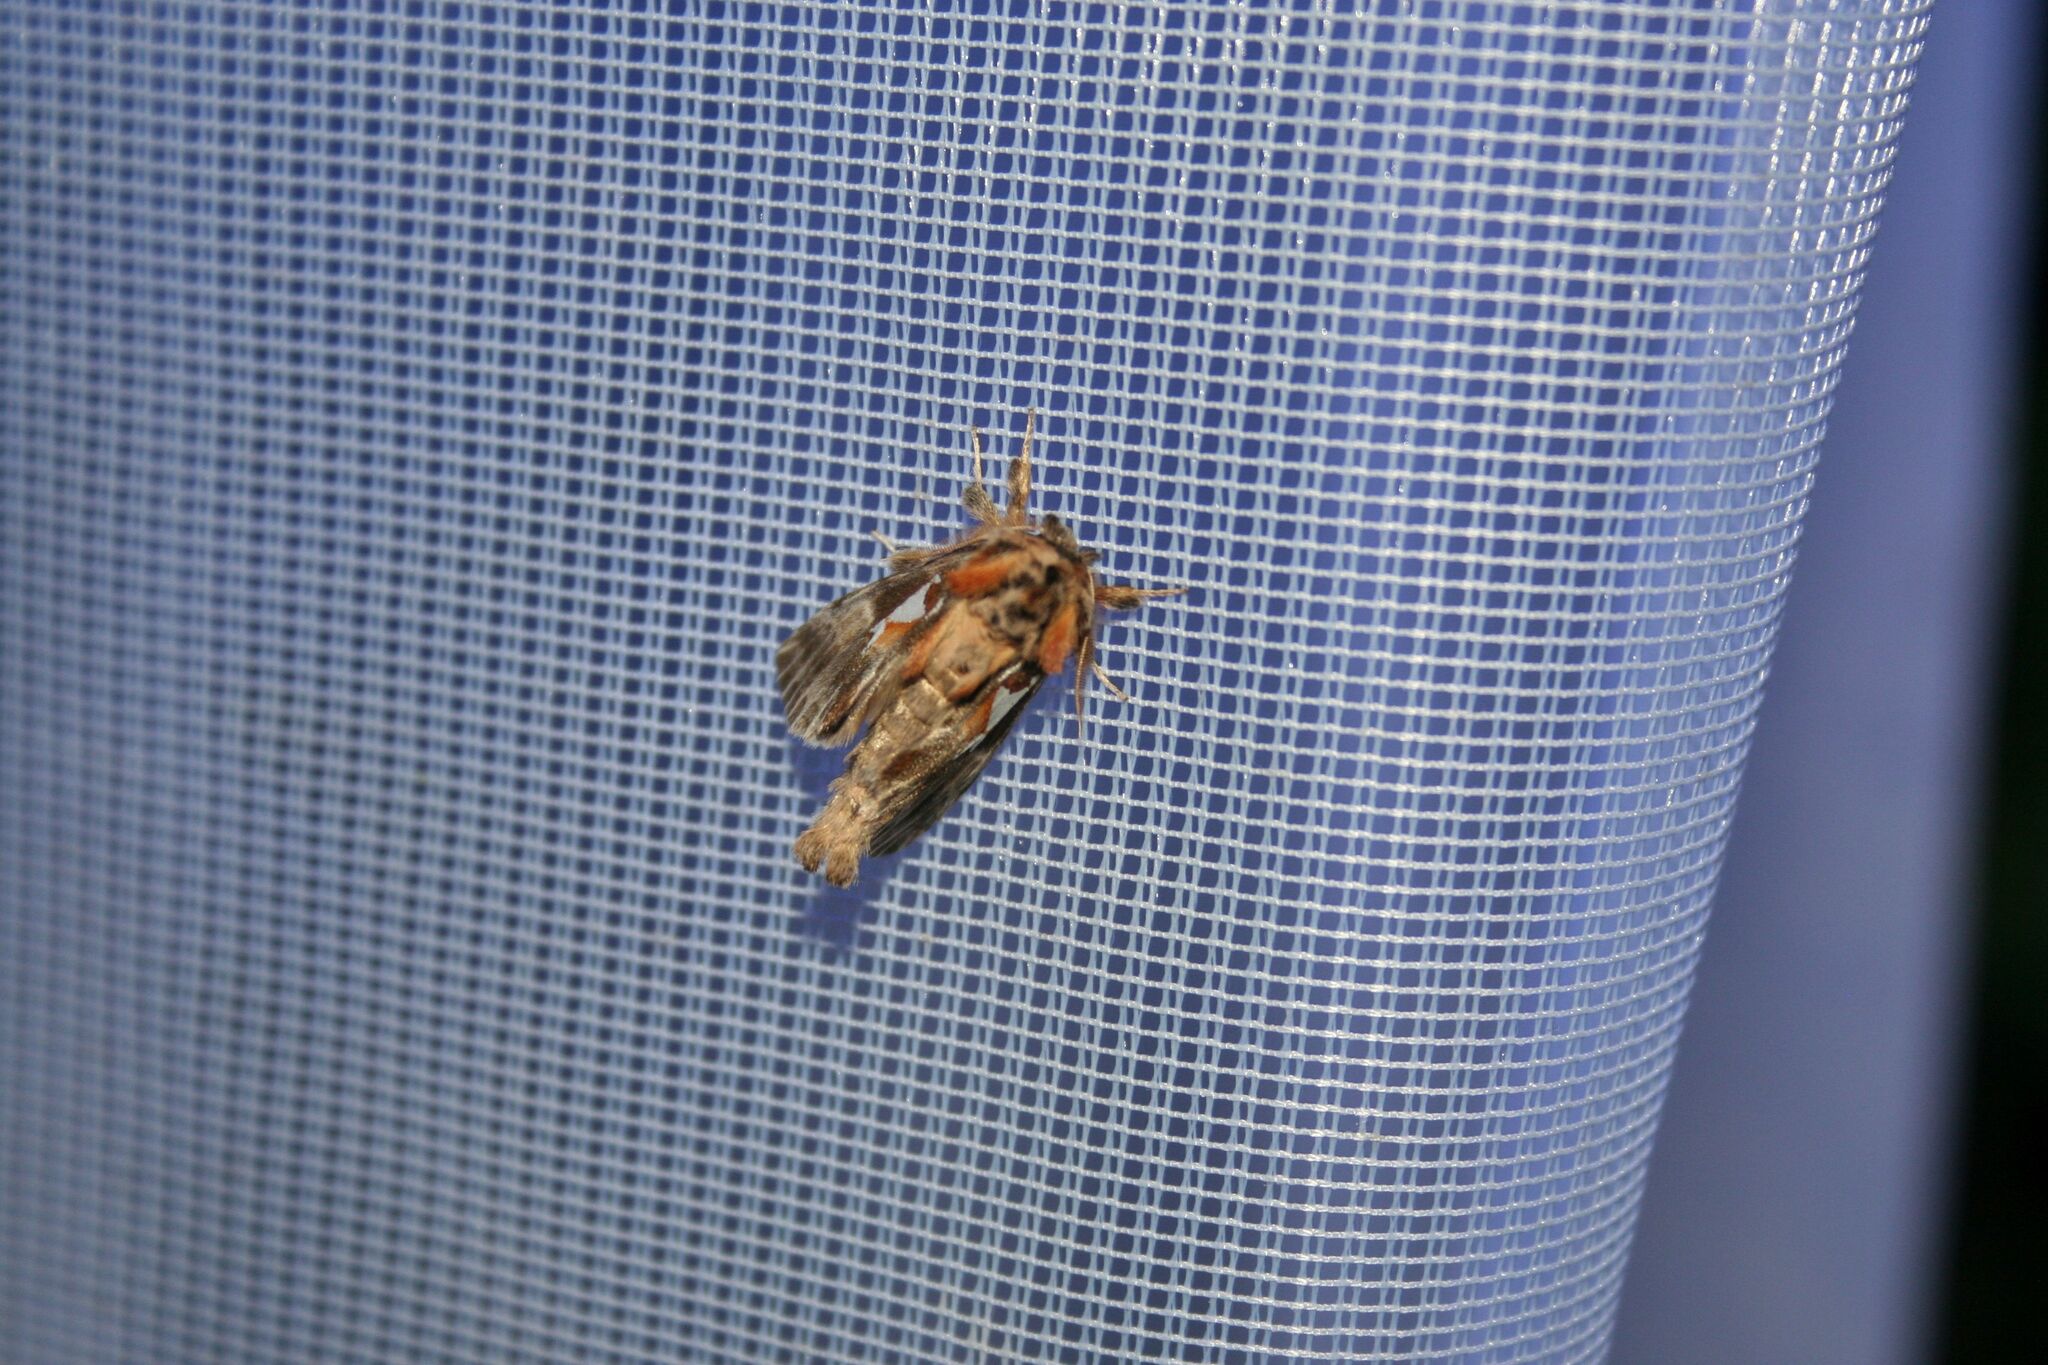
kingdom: Animalia
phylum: Arthropoda
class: Insecta
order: Lepidoptera
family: Notodontidae
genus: Spatalia
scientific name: Spatalia argentina
